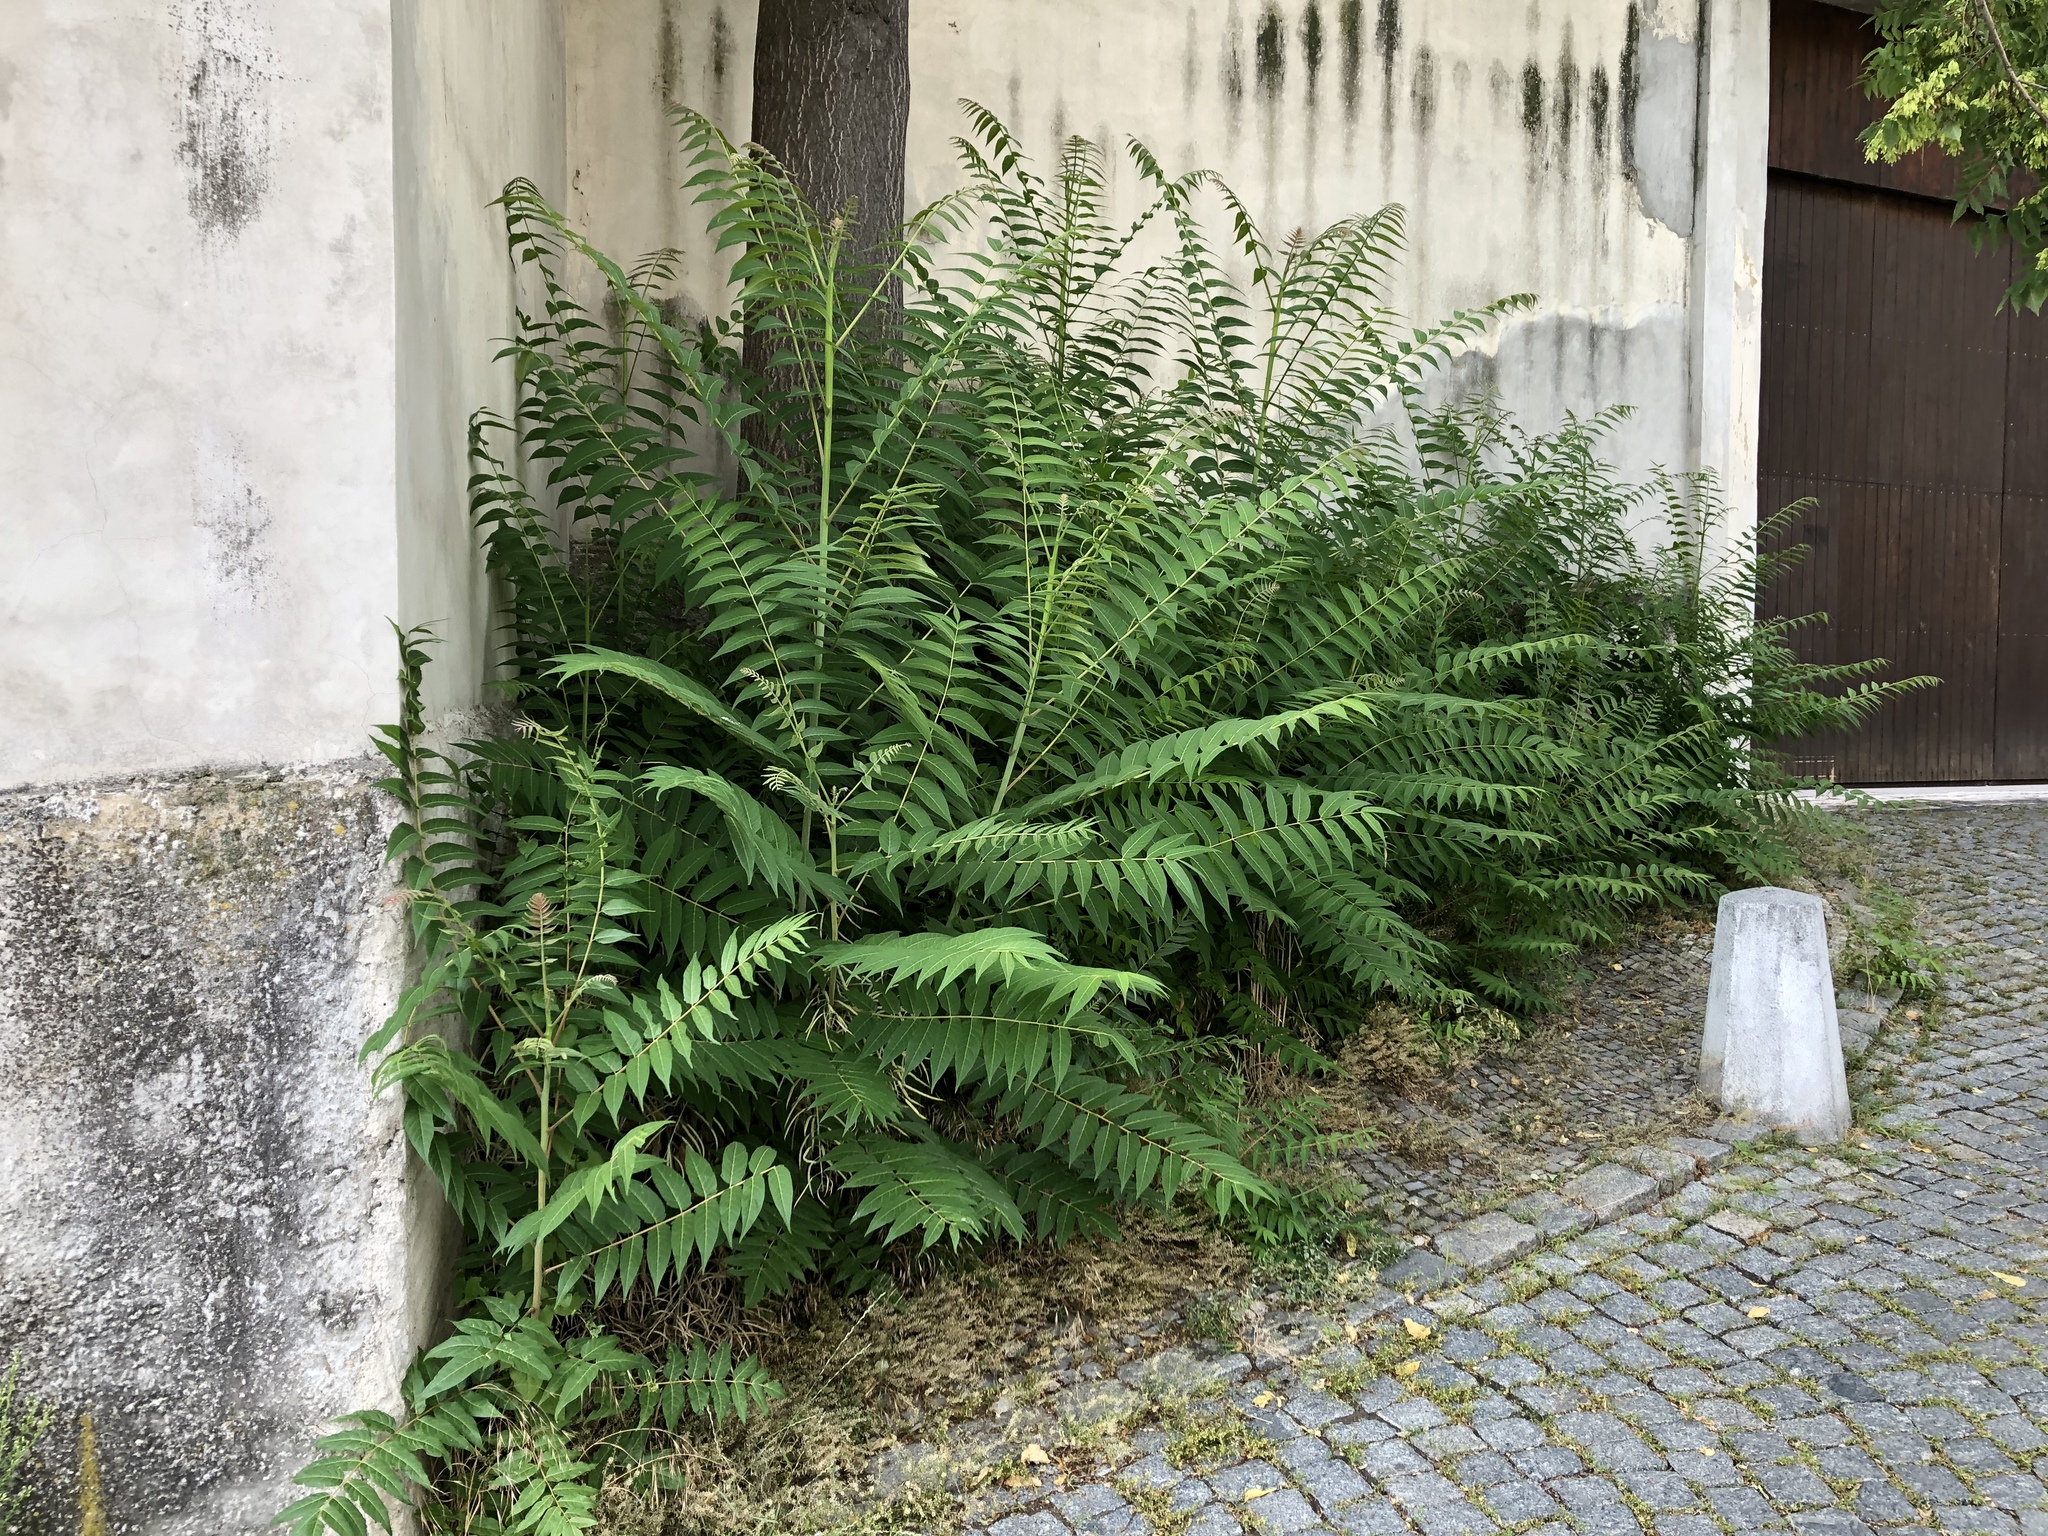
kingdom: Plantae
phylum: Tracheophyta
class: Magnoliopsida
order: Sapindales
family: Simaroubaceae
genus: Ailanthus
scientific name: Ailanthus altissima
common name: Tree-of-heaven
